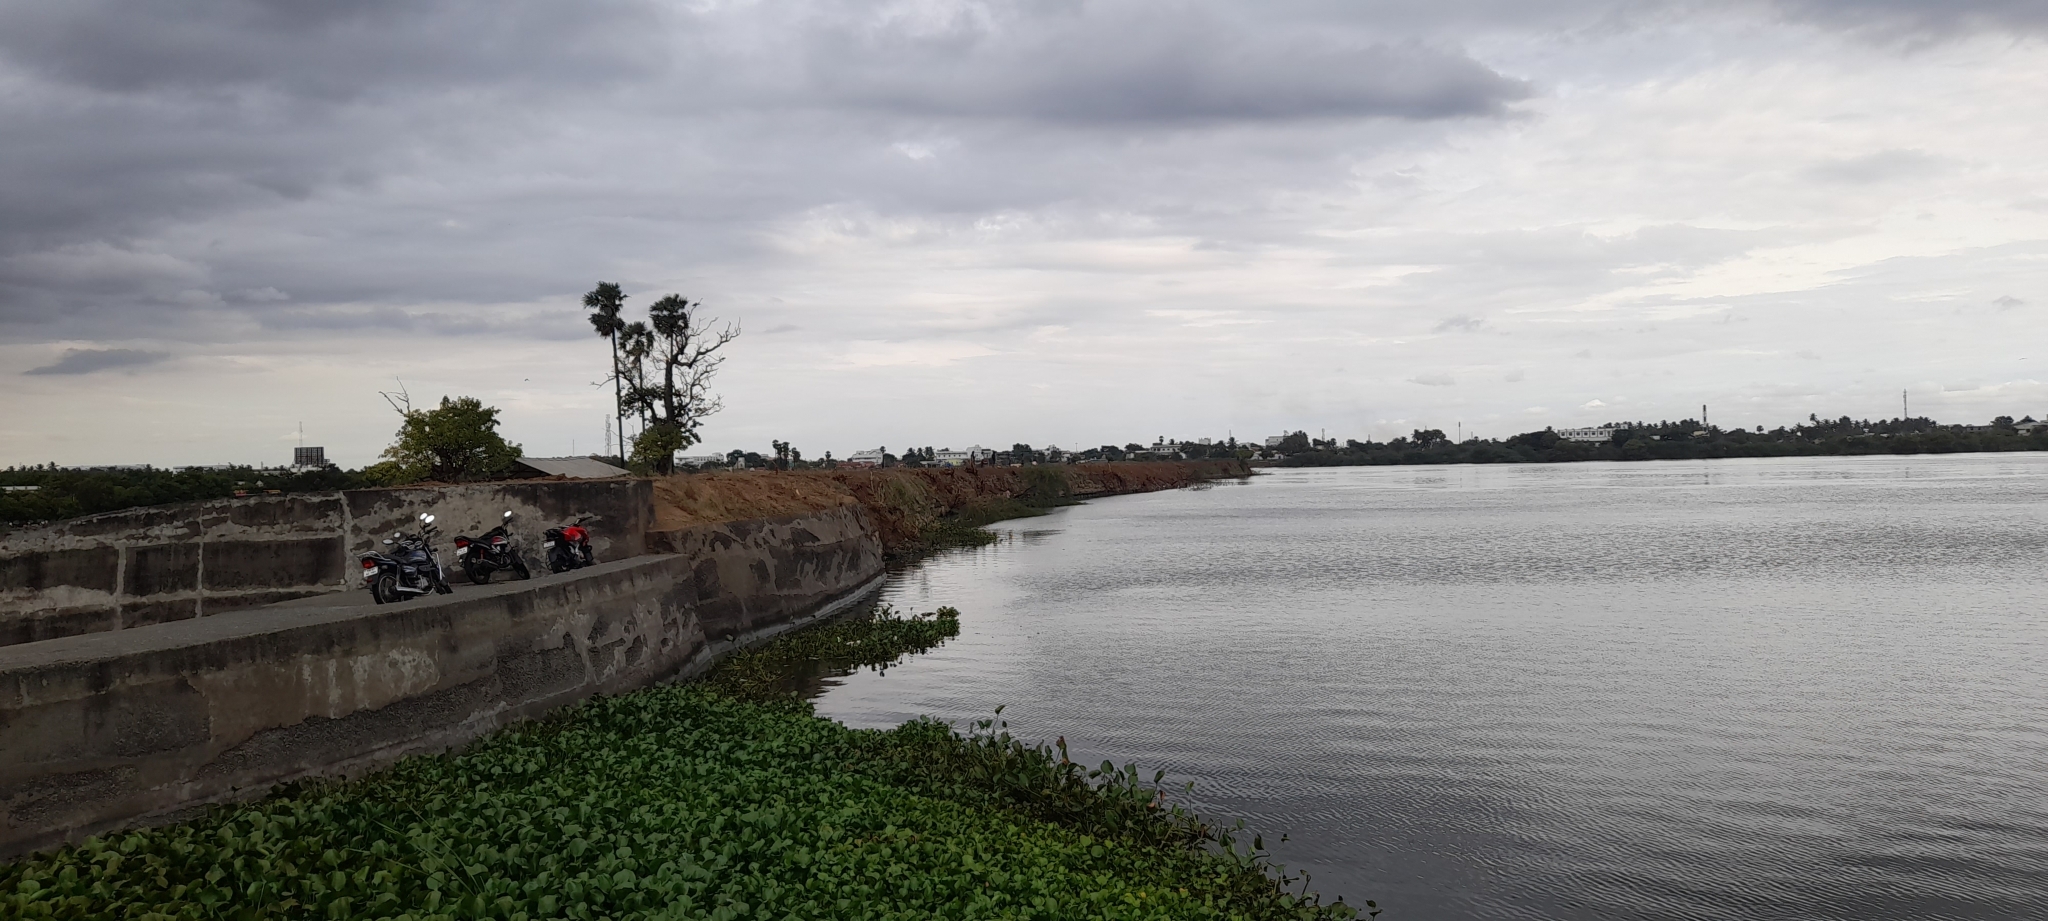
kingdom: Plantae
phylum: Tracheophyta
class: Liliopsida
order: Commelinales
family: Pontederiaceae
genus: Pontederia
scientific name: Pontederia crassipes
